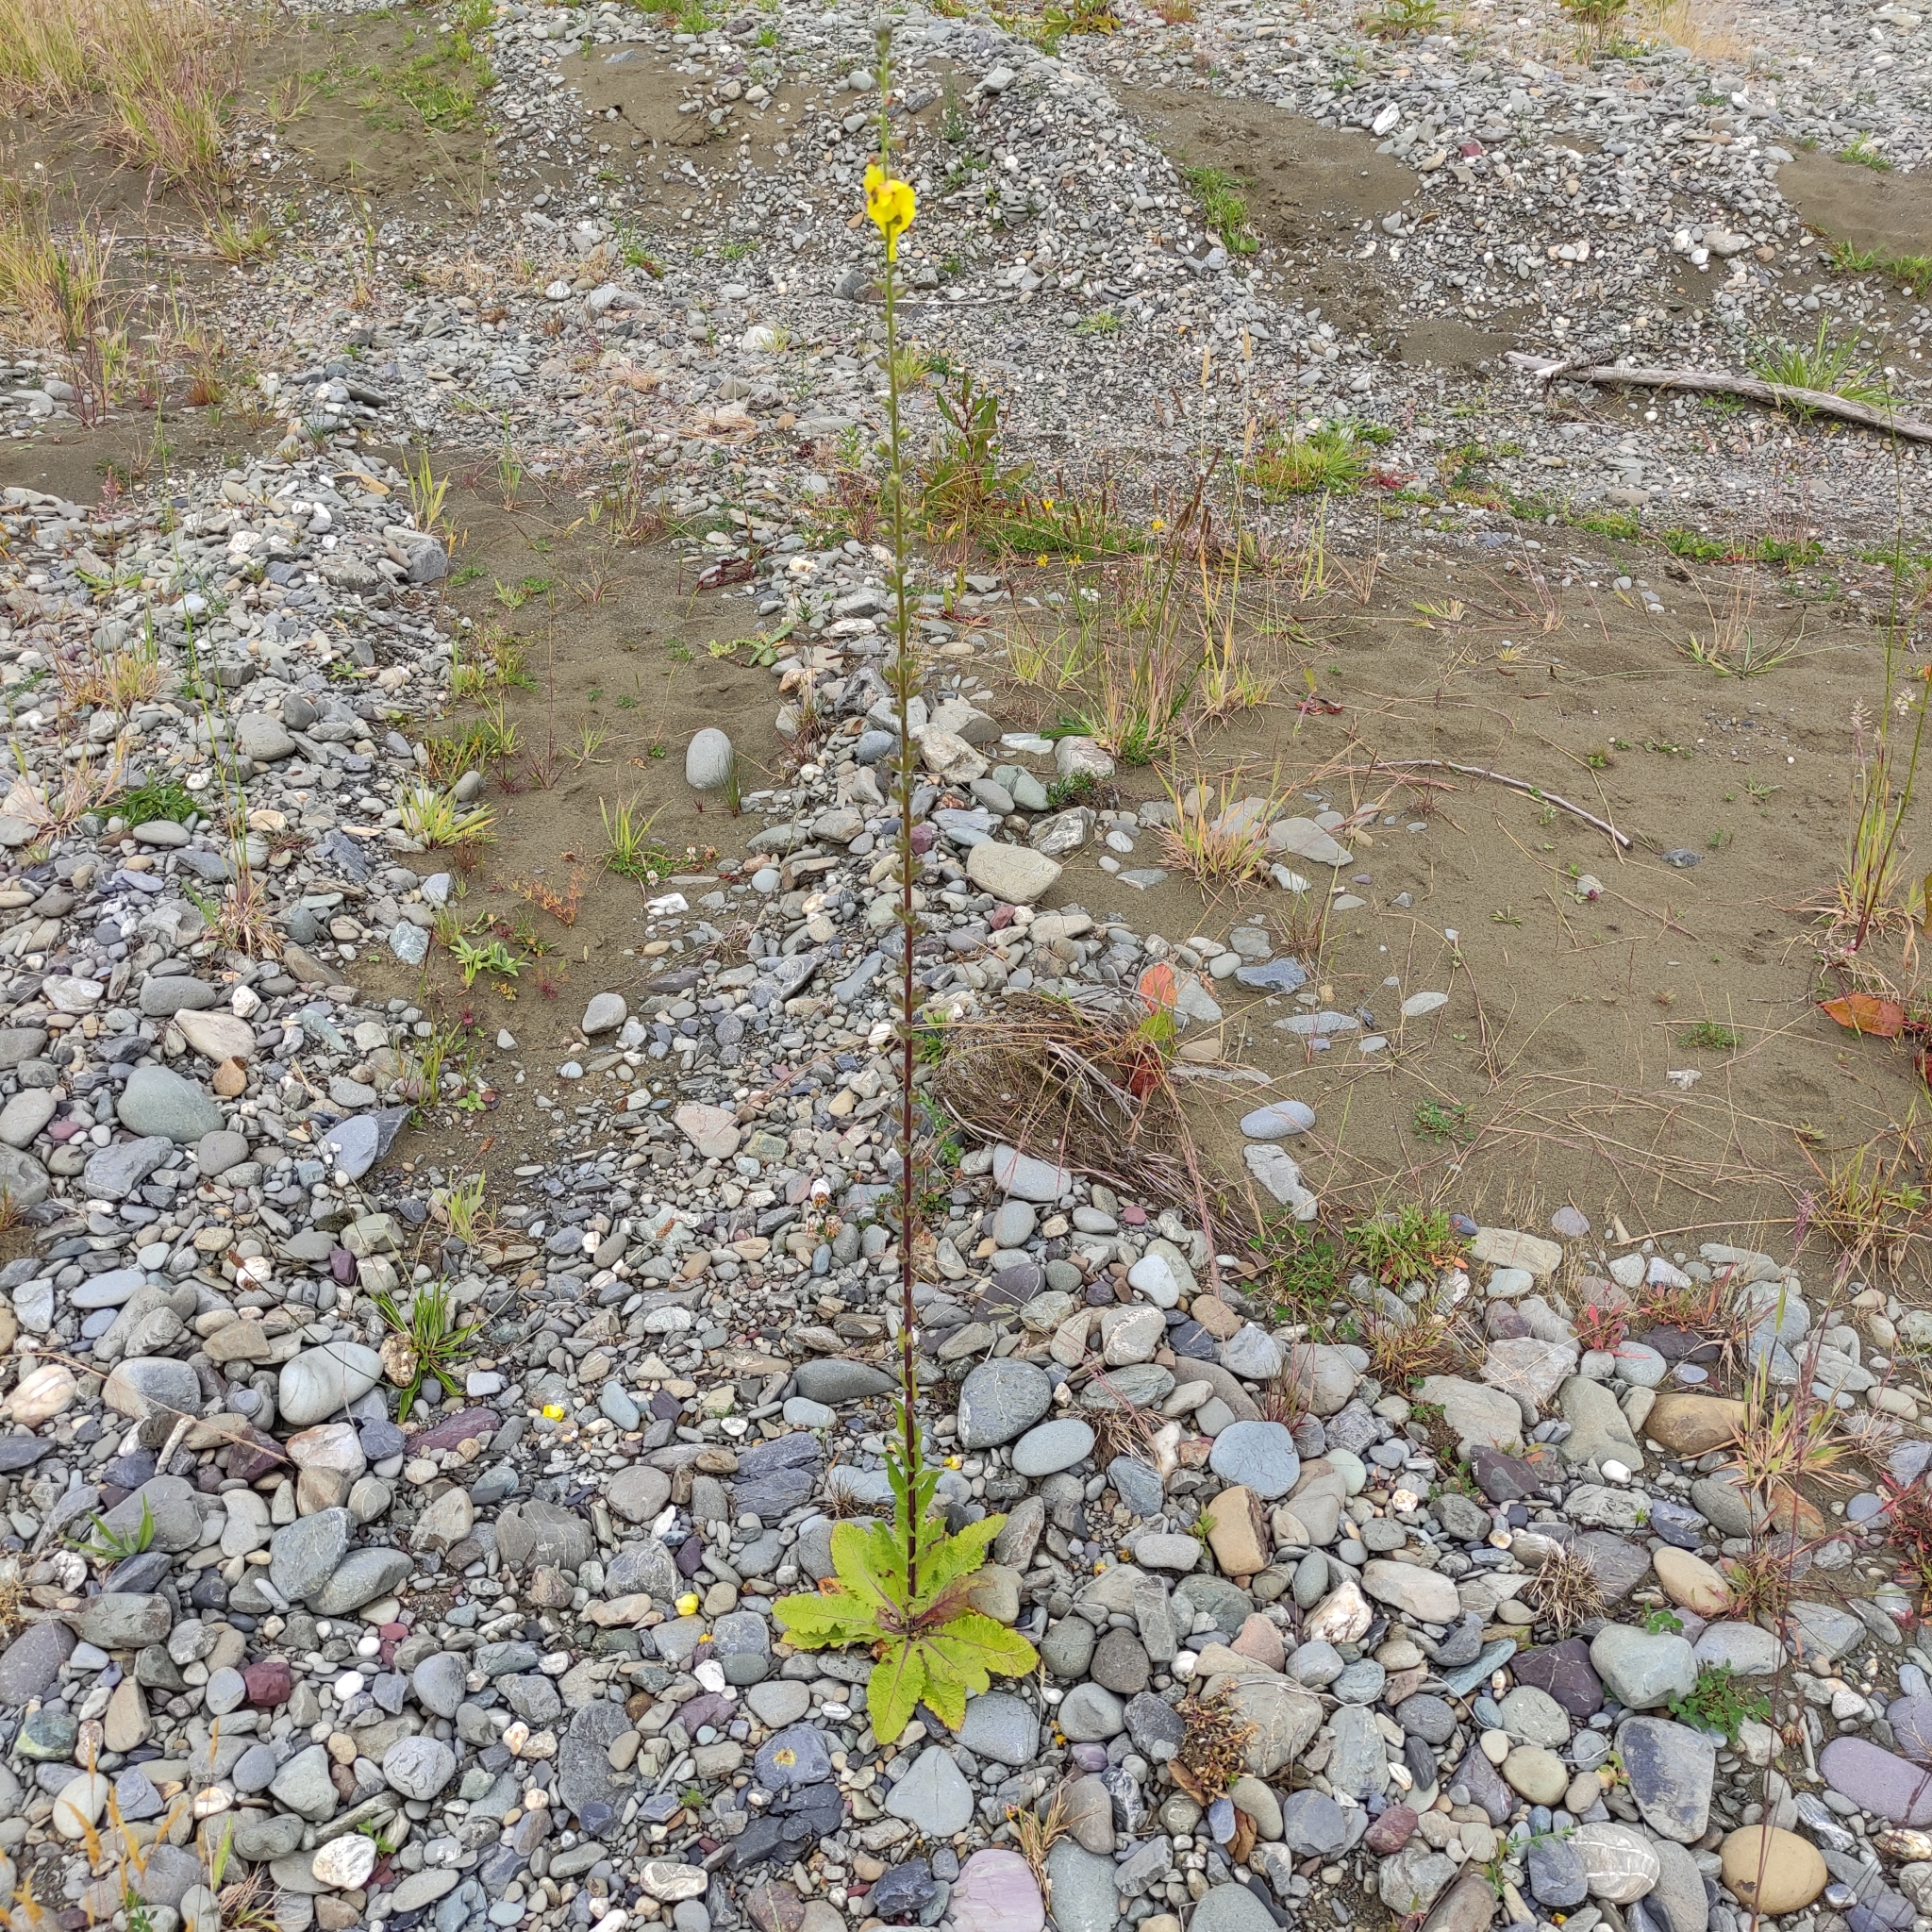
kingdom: Plantae
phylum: Tracheophyta
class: Magnoliopsida
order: Lamiales
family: Scrophulariaceae
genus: Verbascum
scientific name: Verbascum virgatum
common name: Twiggy mullein
